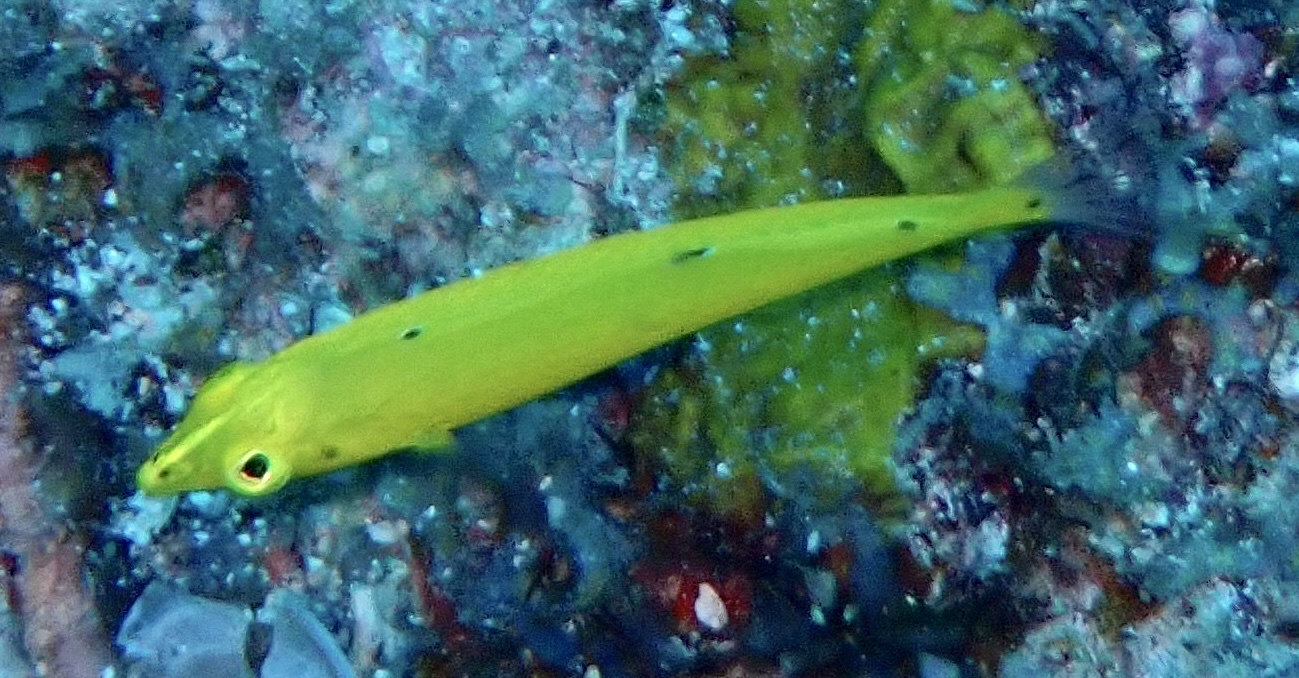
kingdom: Animalia
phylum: Chordata
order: Perciformes
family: Labridae
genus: Halichoeres
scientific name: Halichoeres chrysus
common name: Canary wrasse
